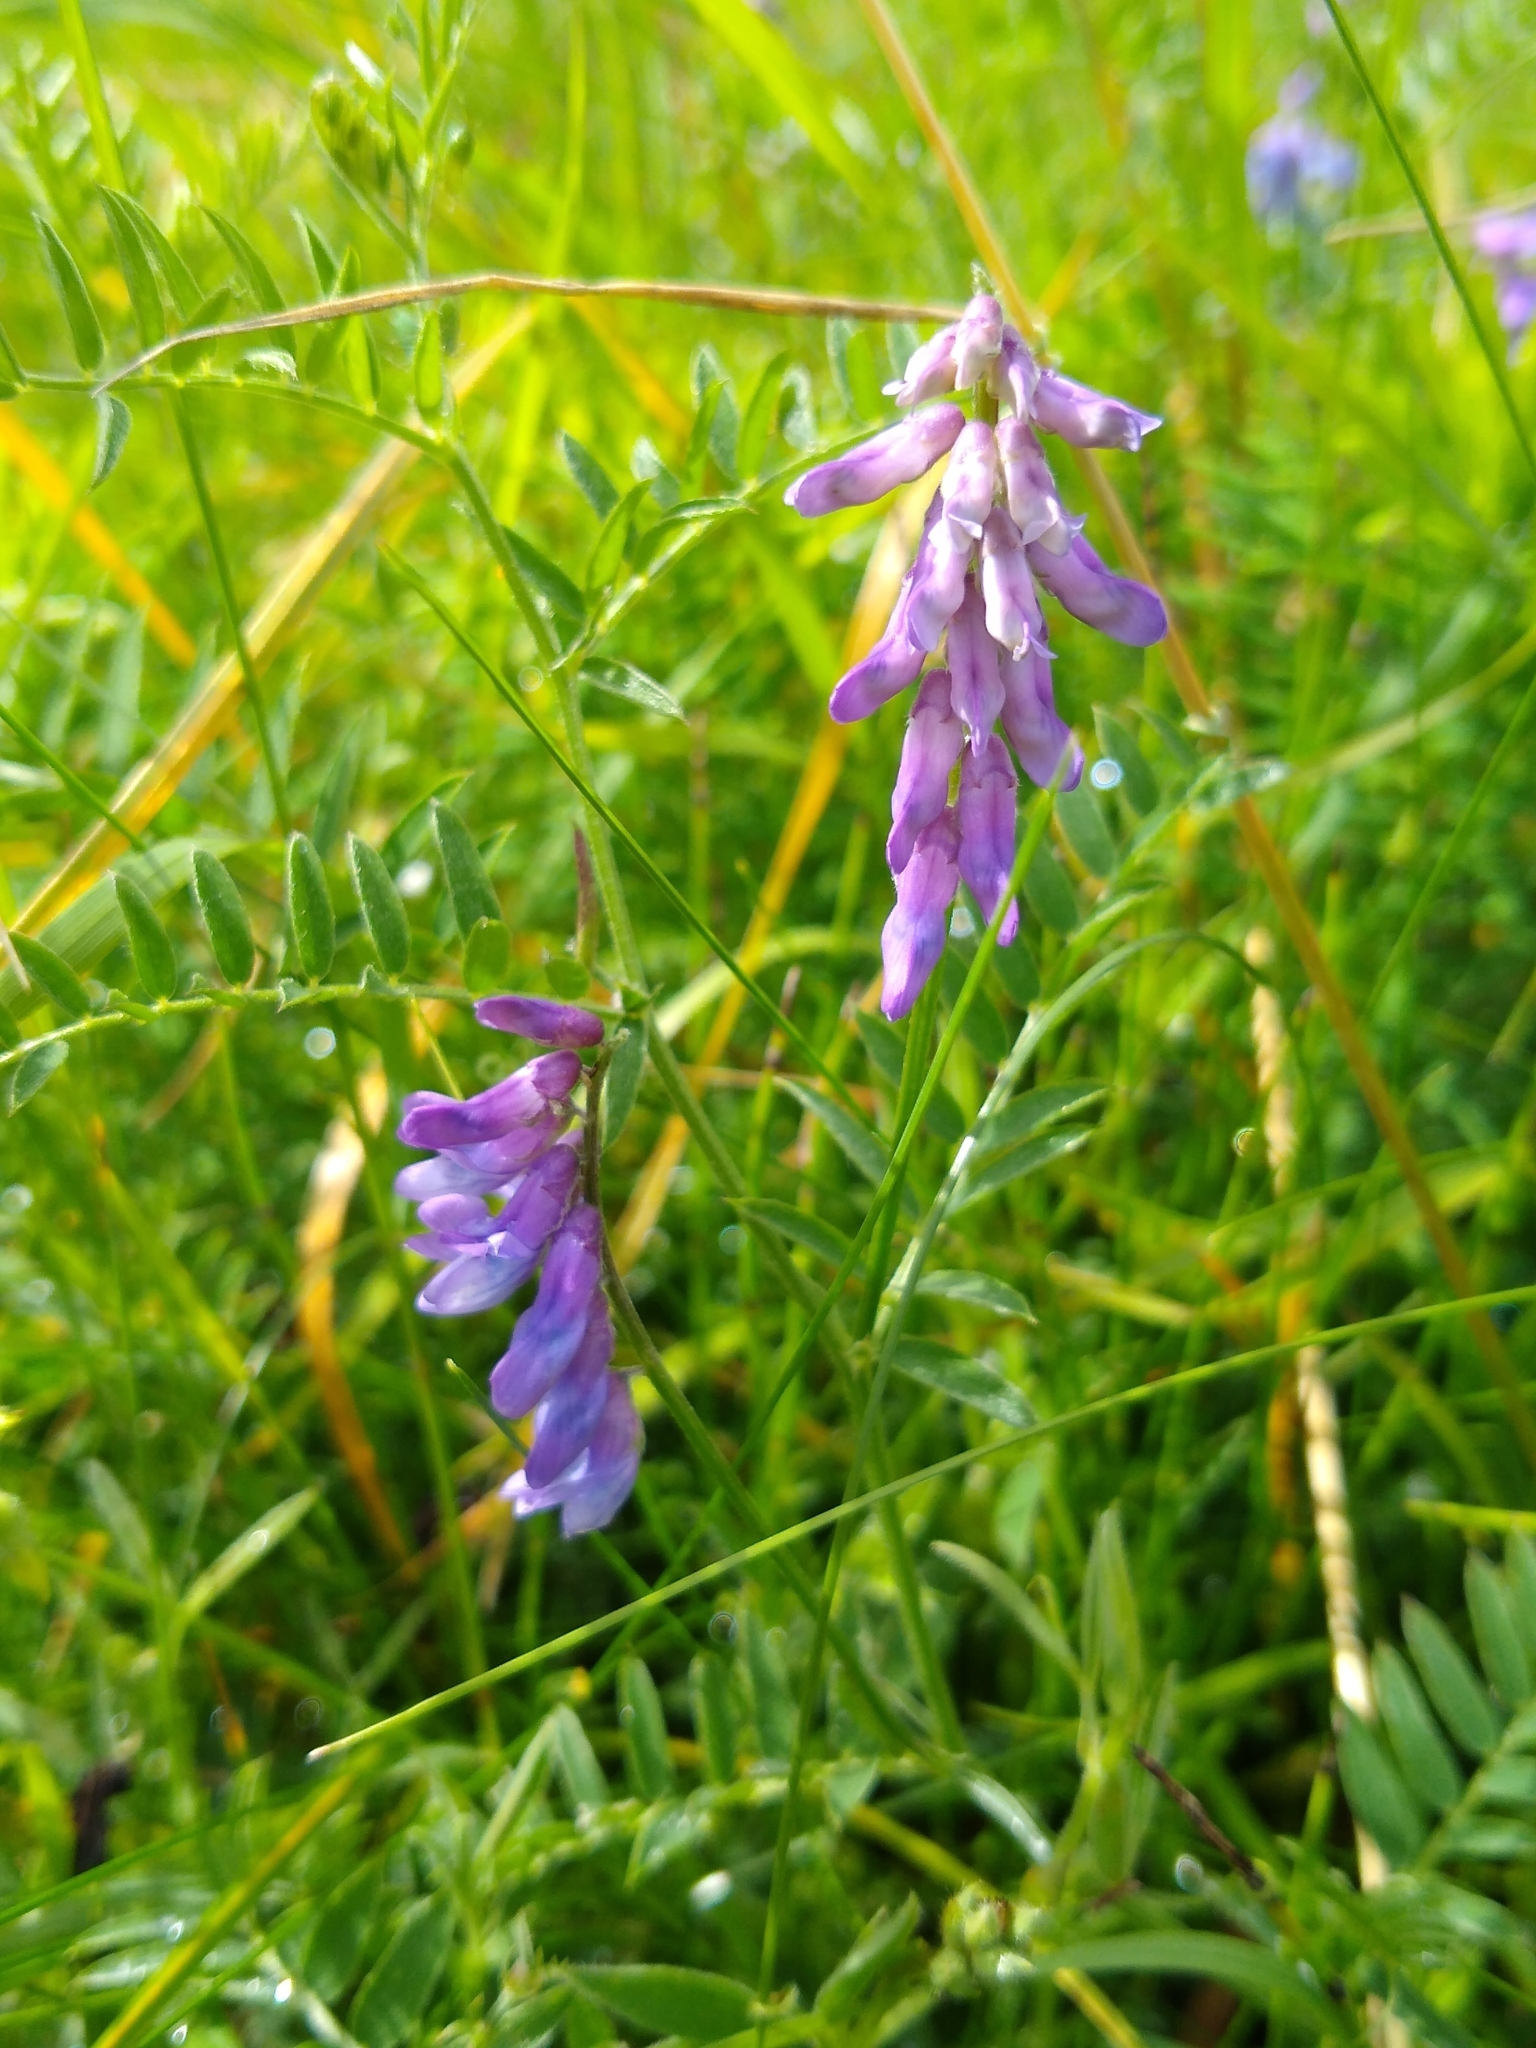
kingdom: Plantae
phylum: Tracheophyta
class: Magnoliopsida
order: Fabales
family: Fabaceae
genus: Vicia
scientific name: Vicia cracca
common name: Bird vetch
